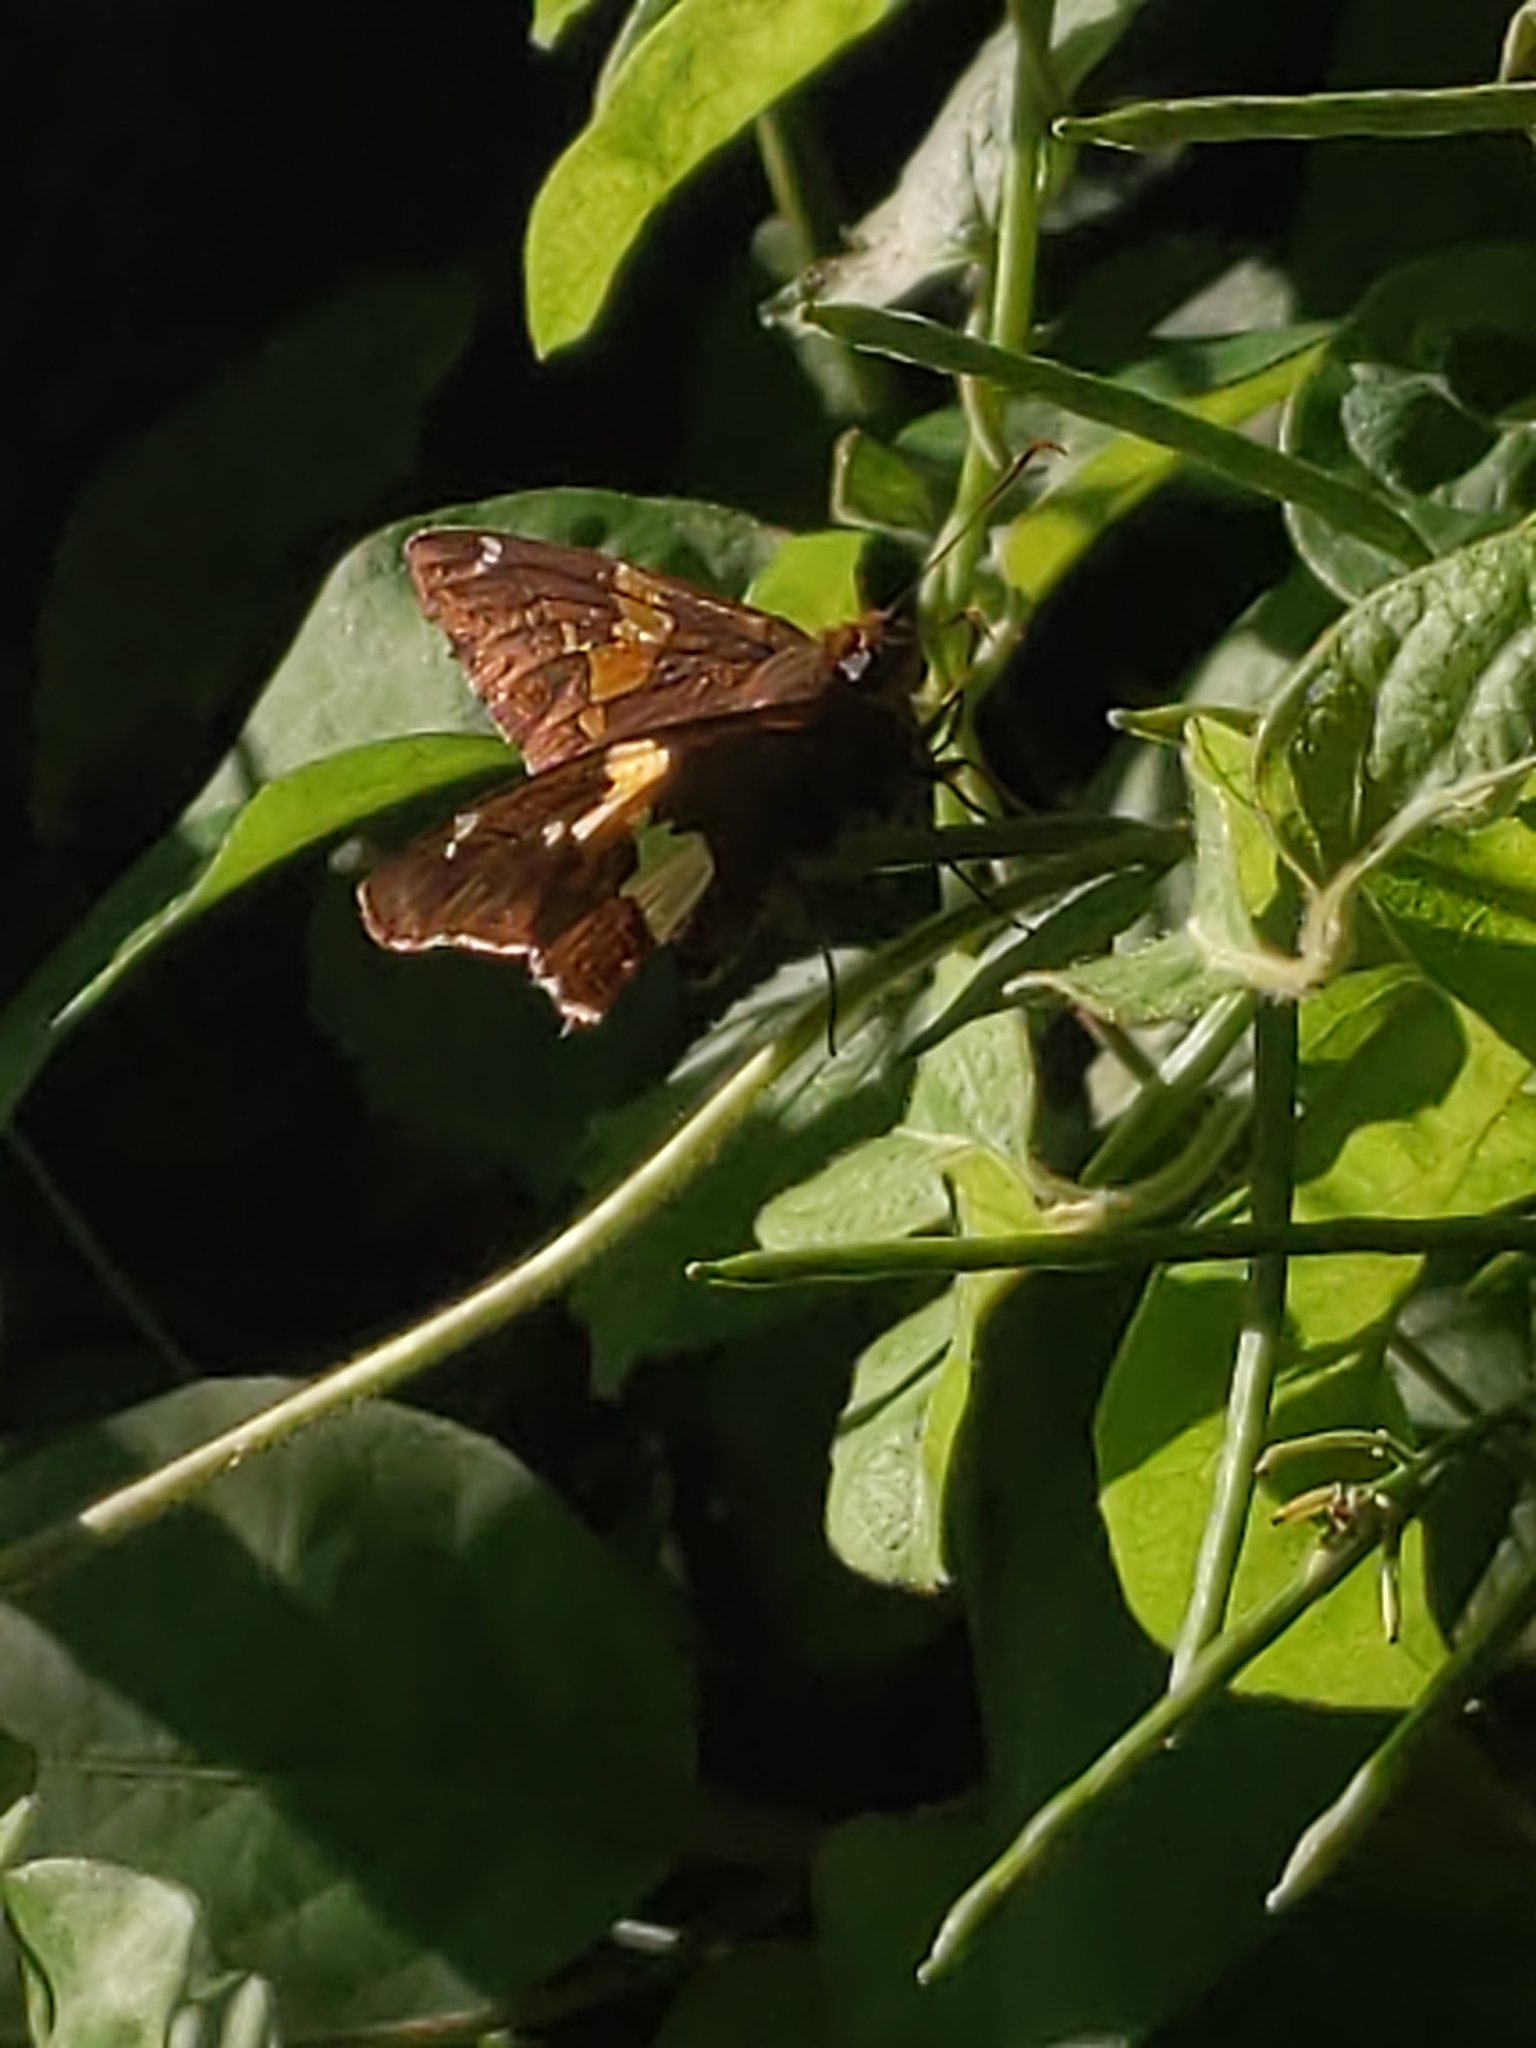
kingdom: Animalia
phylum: Arthropoda
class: Insecta
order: Lepidoptera
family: Hesperiidae
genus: Epargyreus
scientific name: Epargyreus clarus
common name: Silver-spotted skipper
